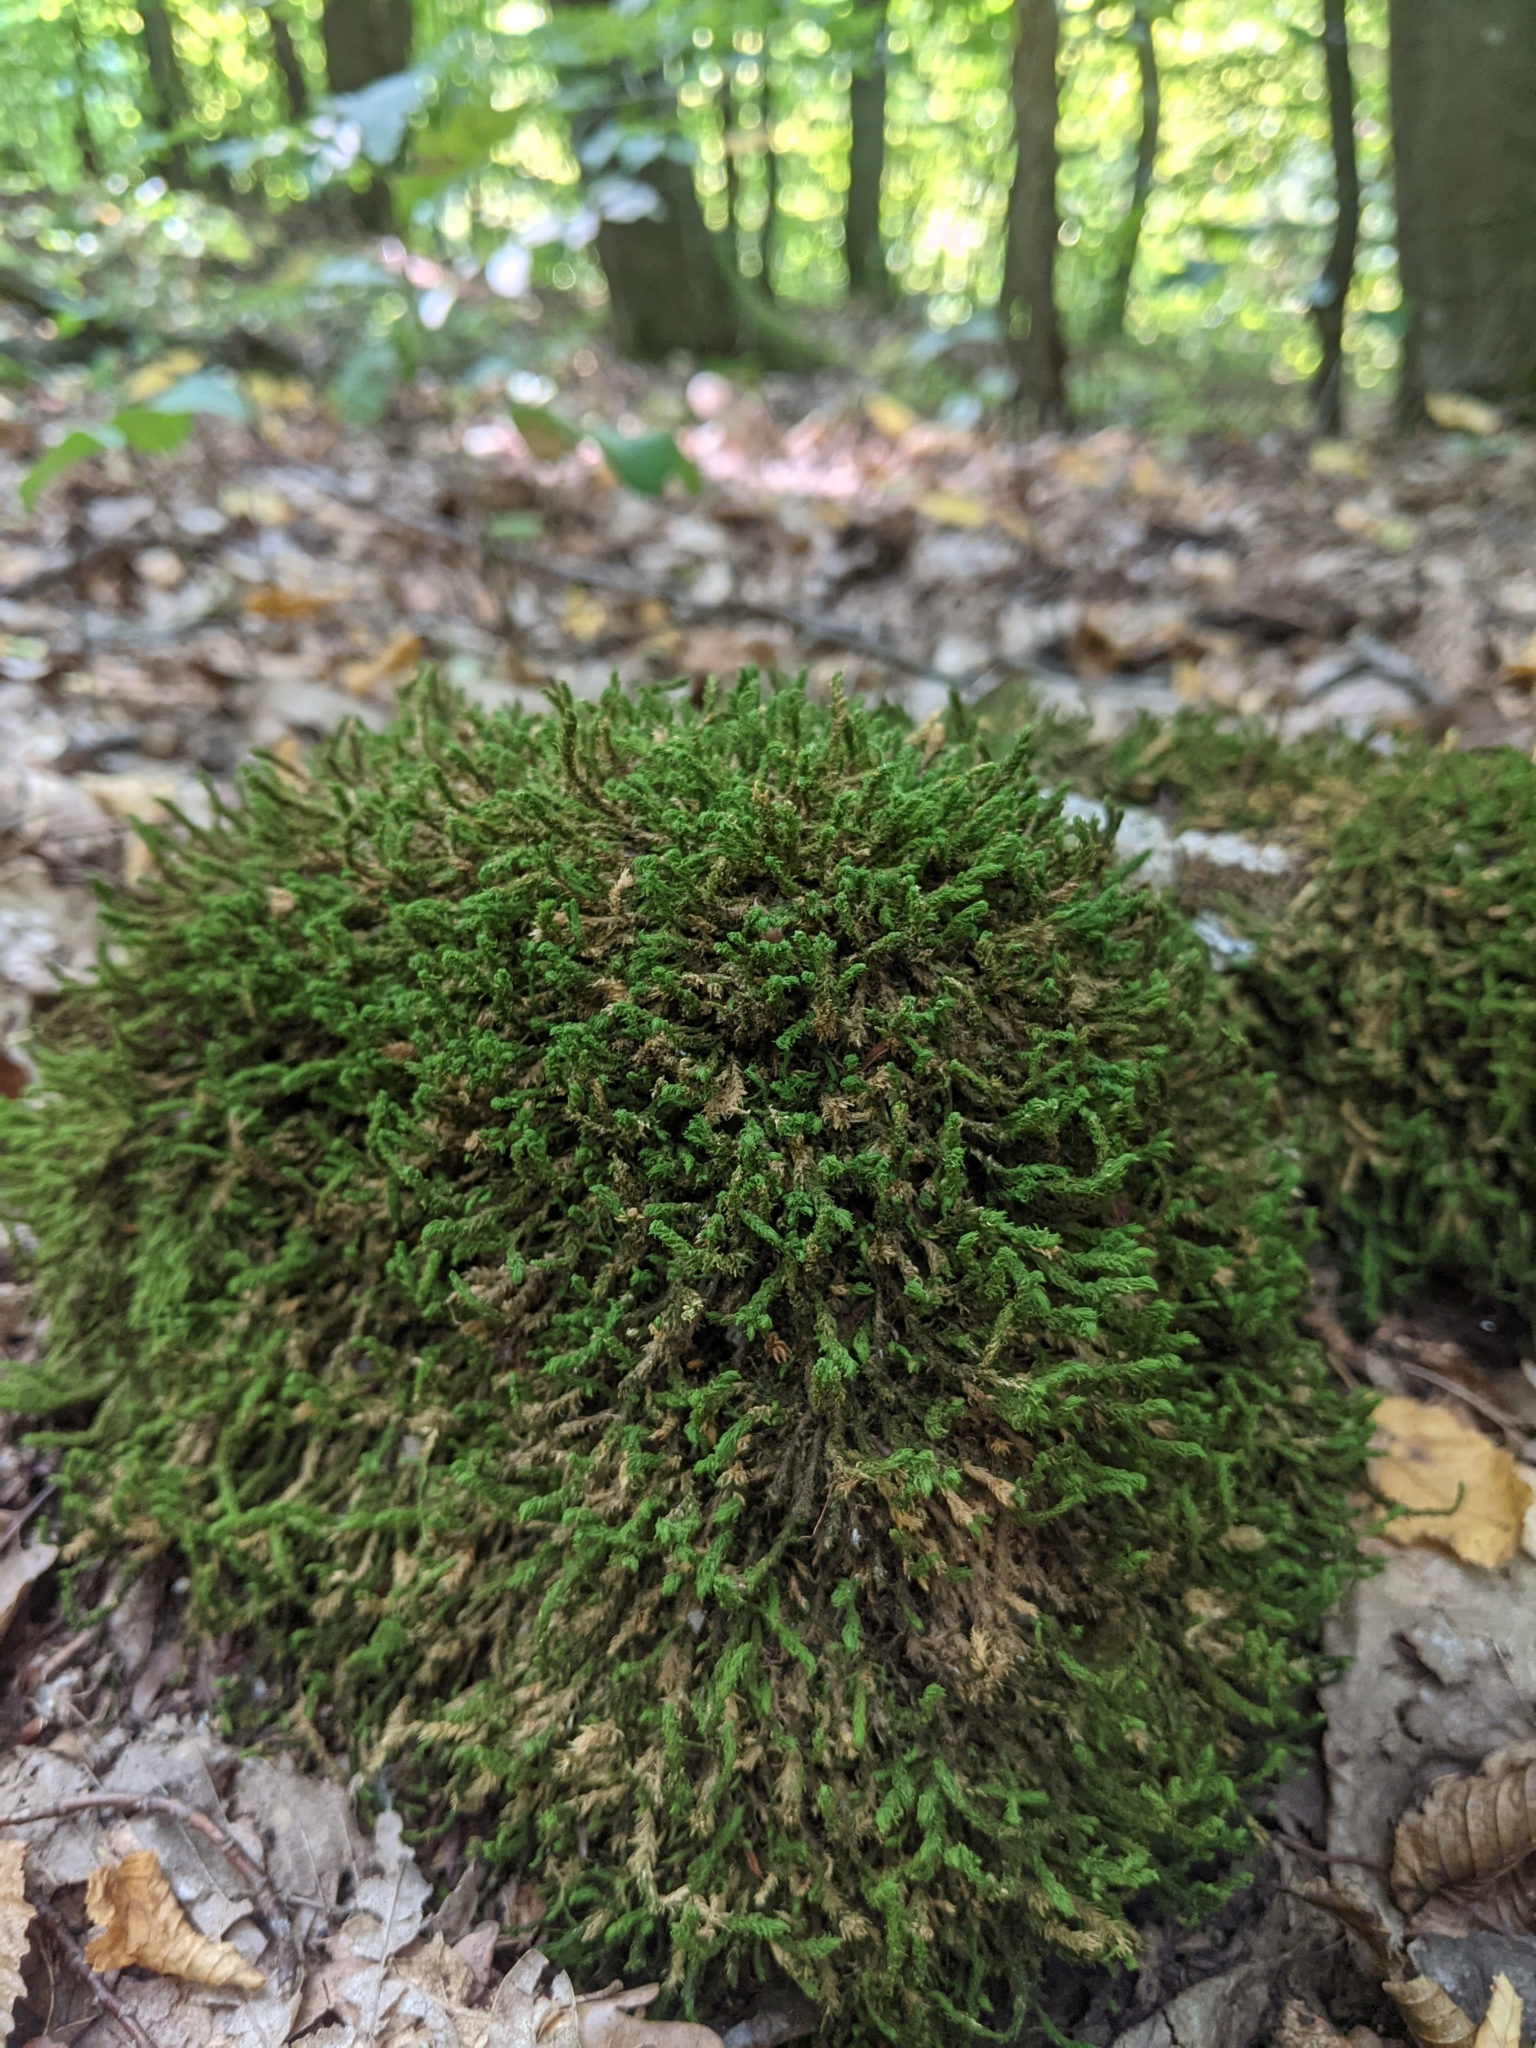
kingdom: Plantae
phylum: Bryophyta
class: Bryopsida
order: Hypnales
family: Anomodontaceae
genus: Anomodon
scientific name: Anomodon viticulosus
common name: Tall anomodon
